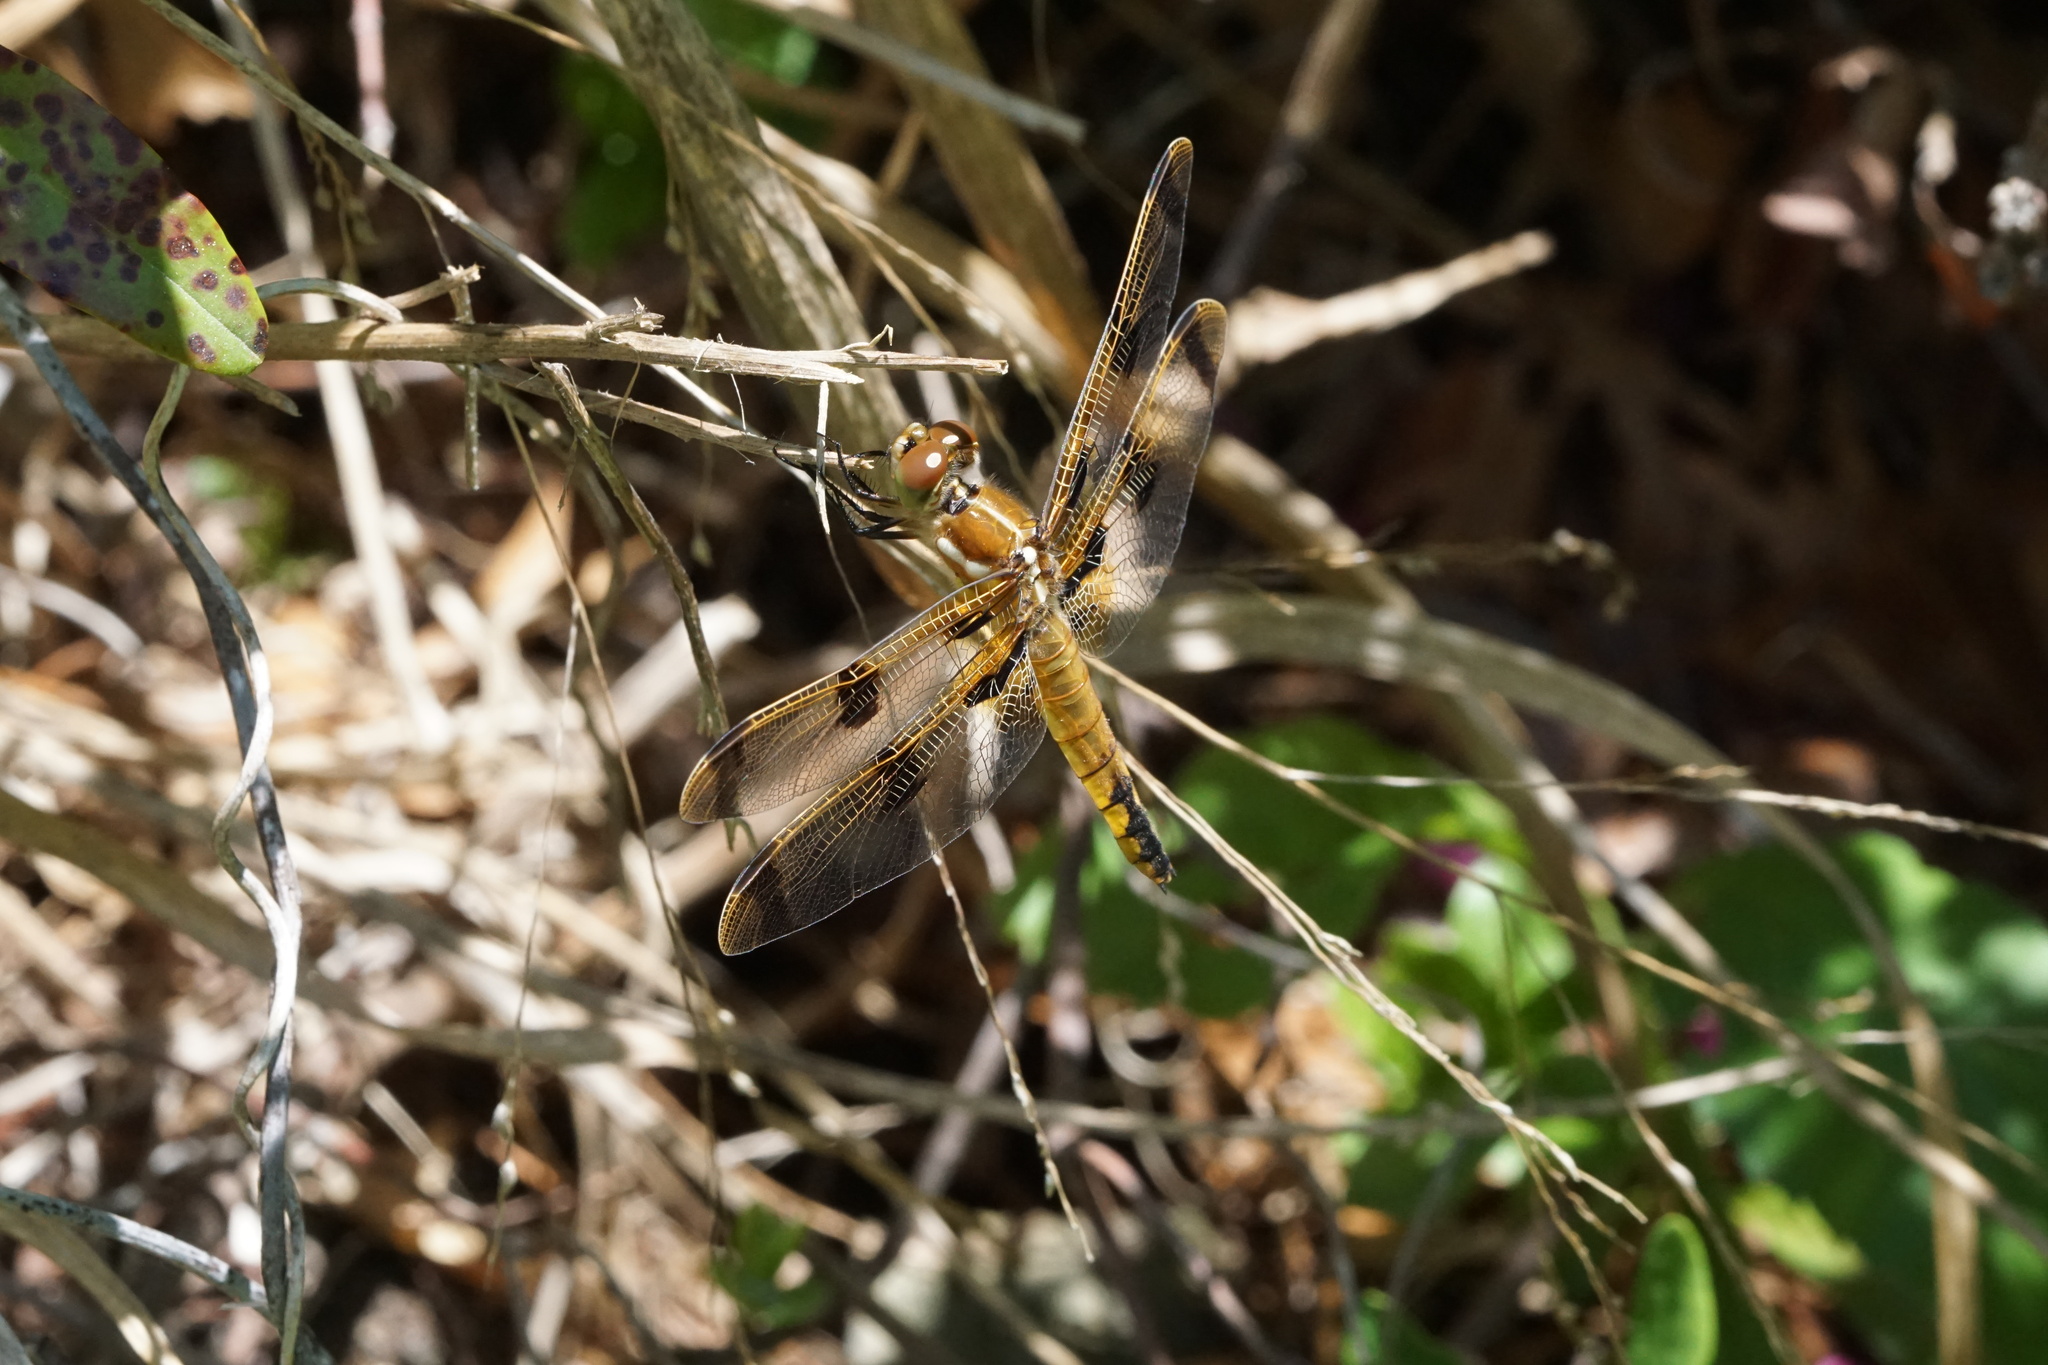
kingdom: Animalia
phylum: Arthropoda
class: Insecta
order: Odonata
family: Libellulidae
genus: Libellula
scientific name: Libellula semifasciata
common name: Painted skimmer
